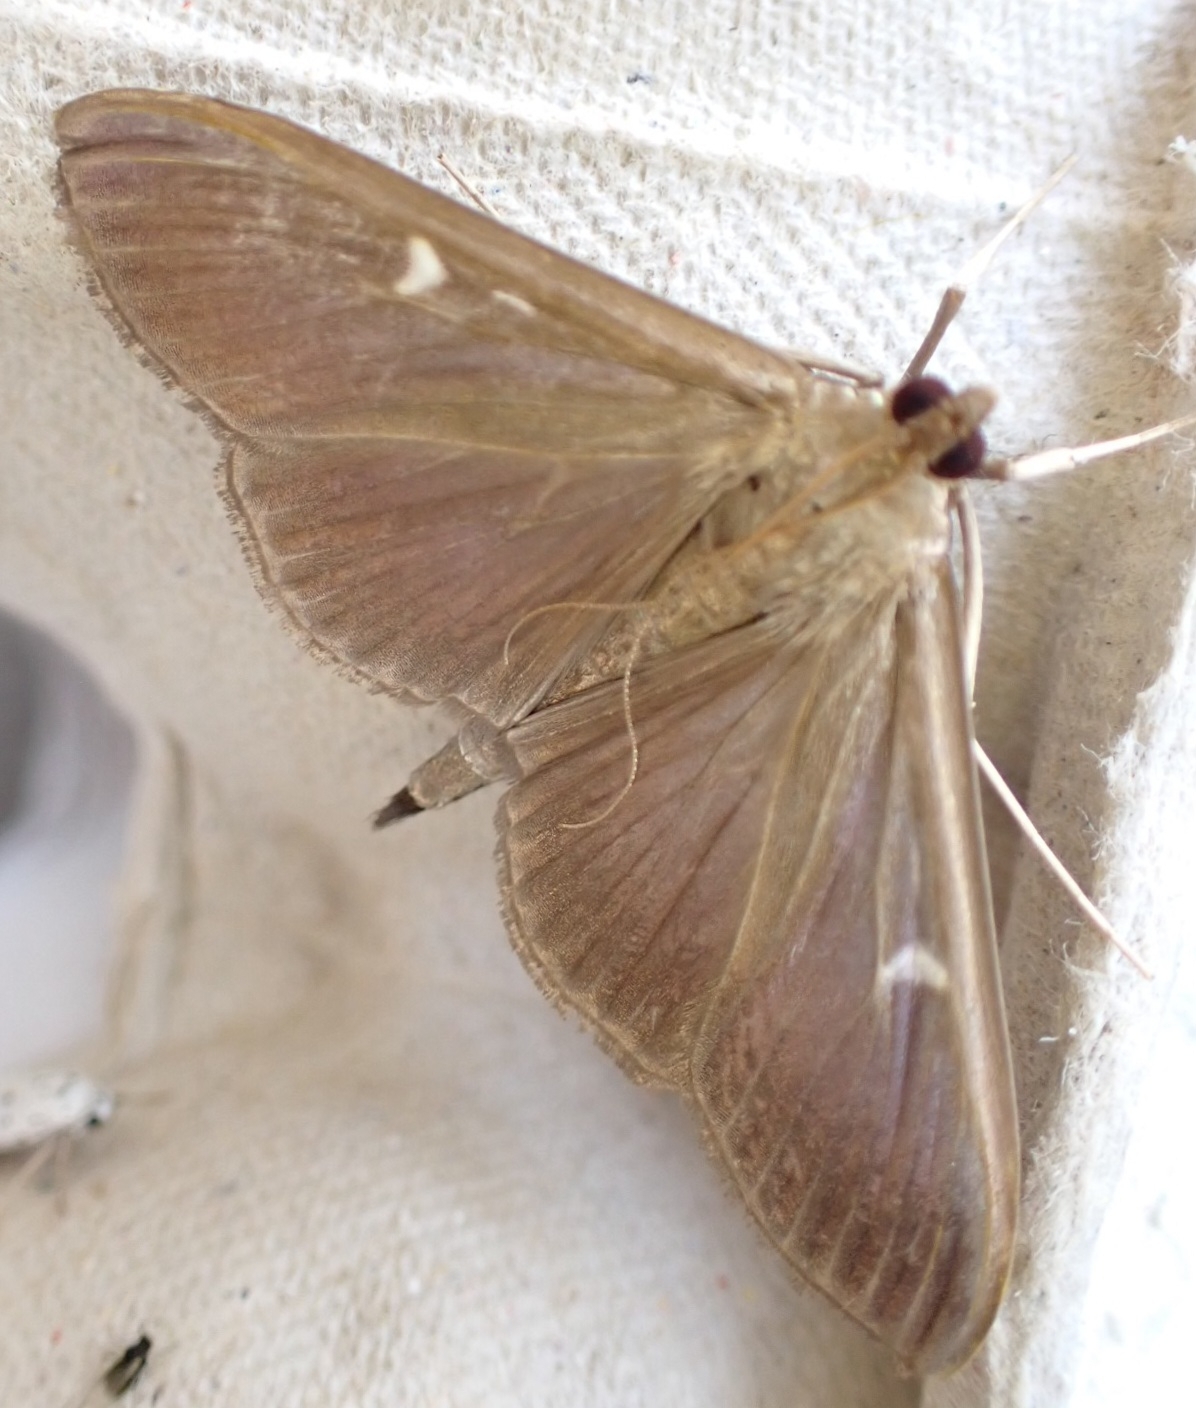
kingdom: Animalia
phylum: Arthropoda
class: Insecta
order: Lepidoptera
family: Crambidae
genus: Cydalima
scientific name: Cydalima perspectalis
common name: Box tree moth
